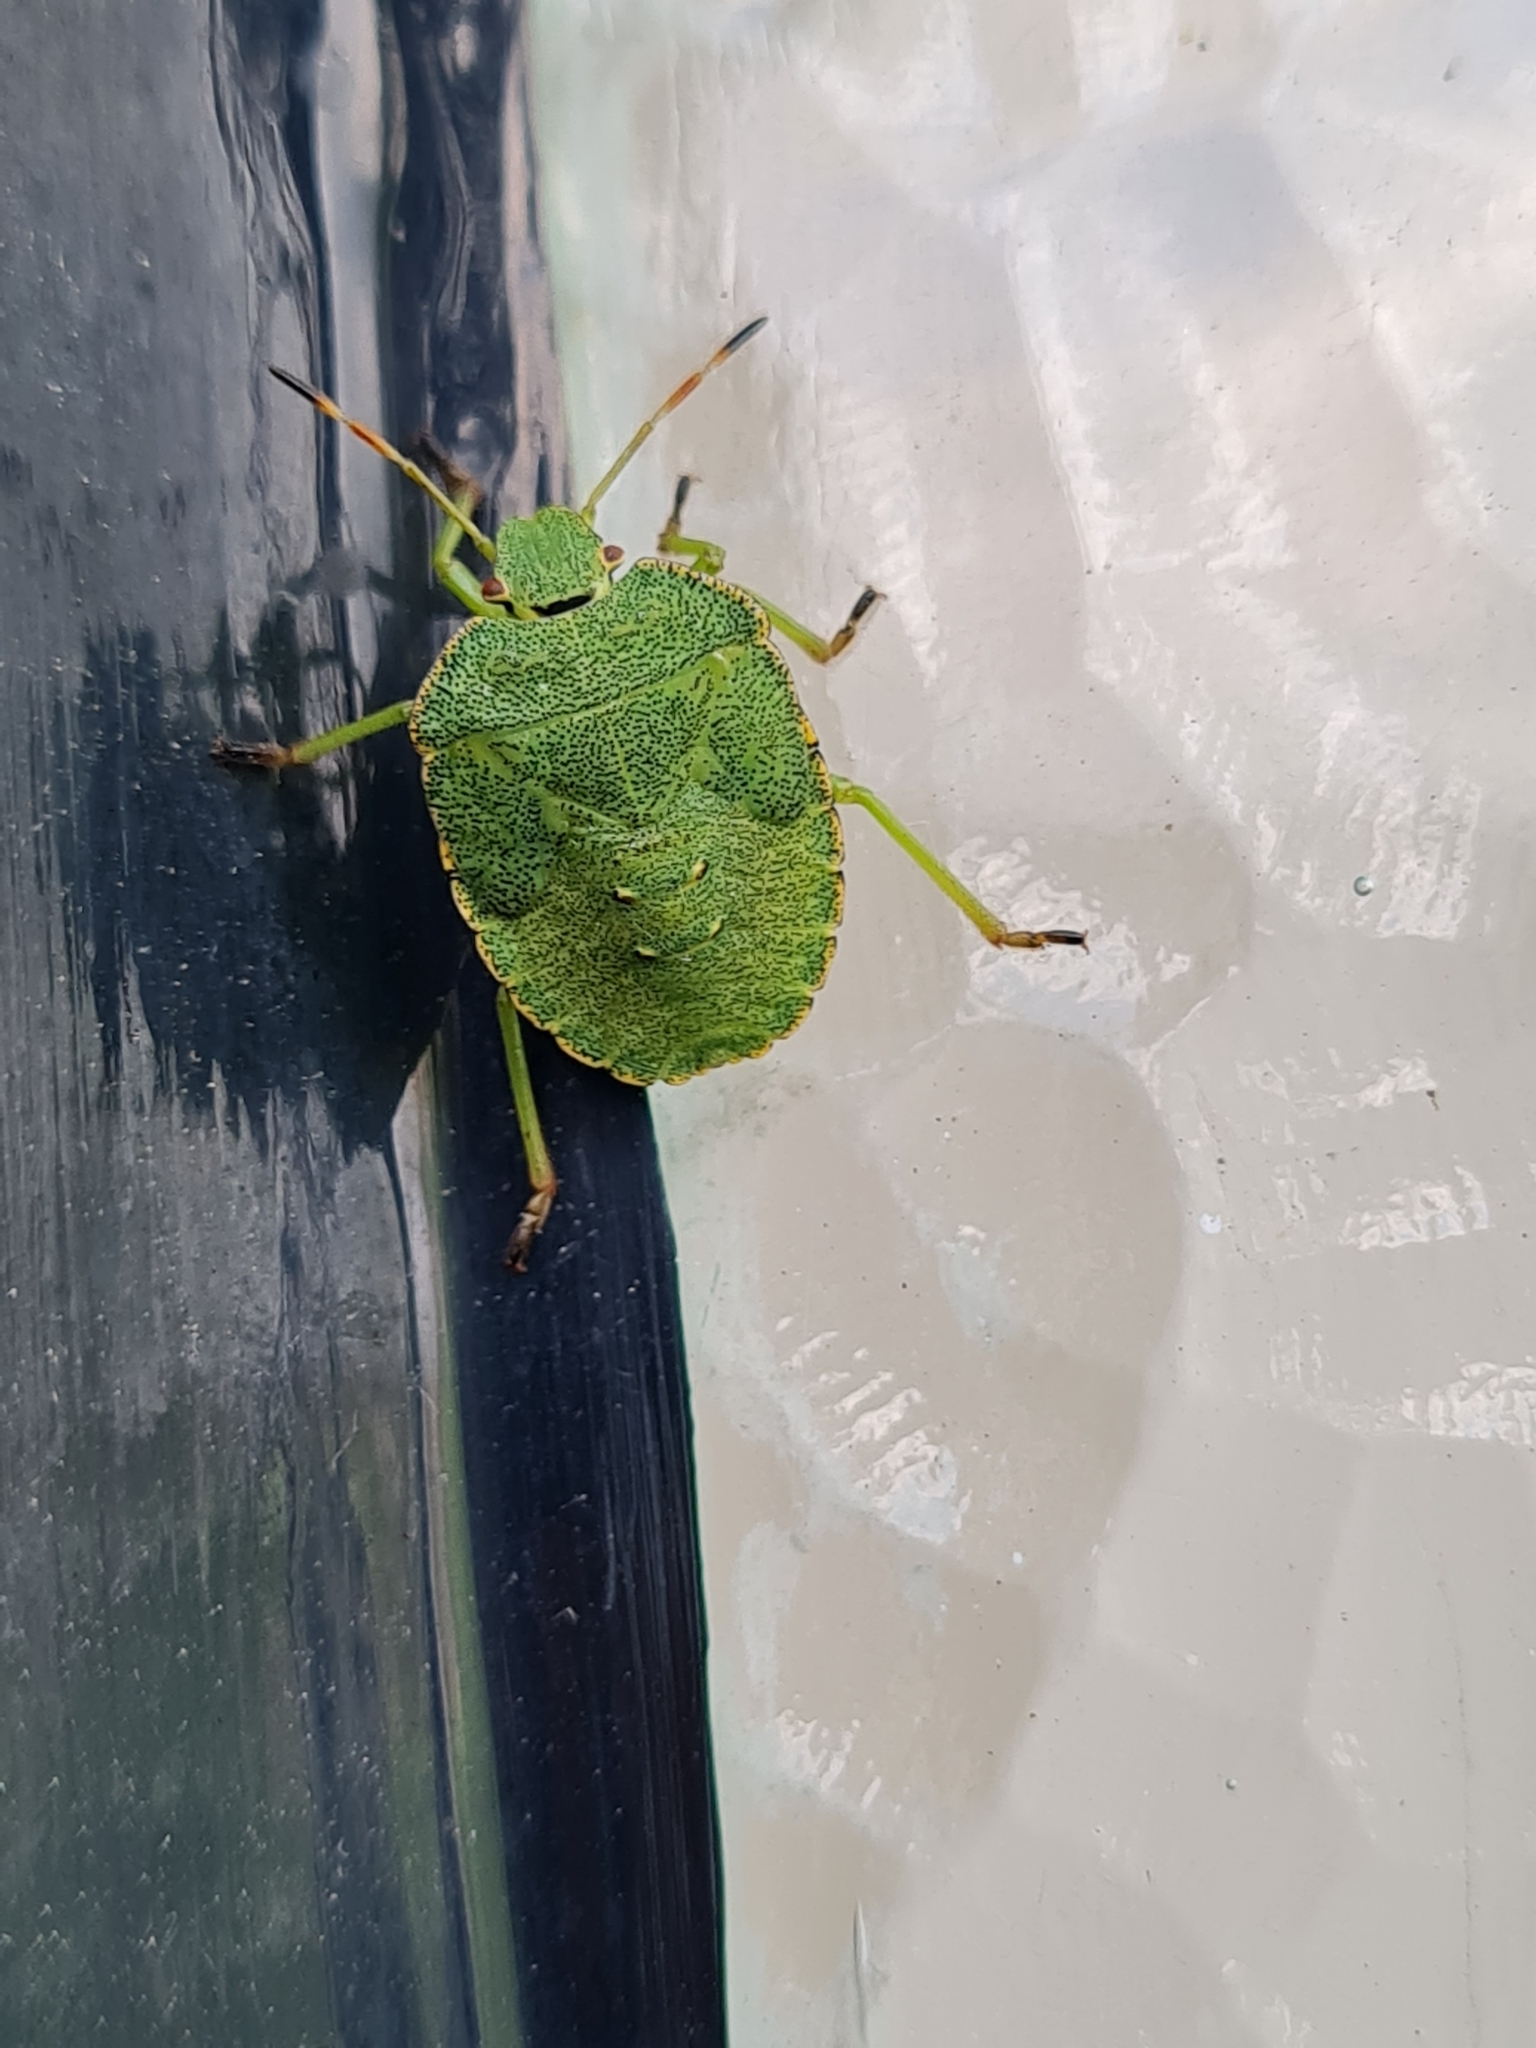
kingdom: Animalia
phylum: Arthropoda
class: Insecta
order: Hemiptera
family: Pentatomidae
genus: Palomena
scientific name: Palomena prasina
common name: Green shieldbug
